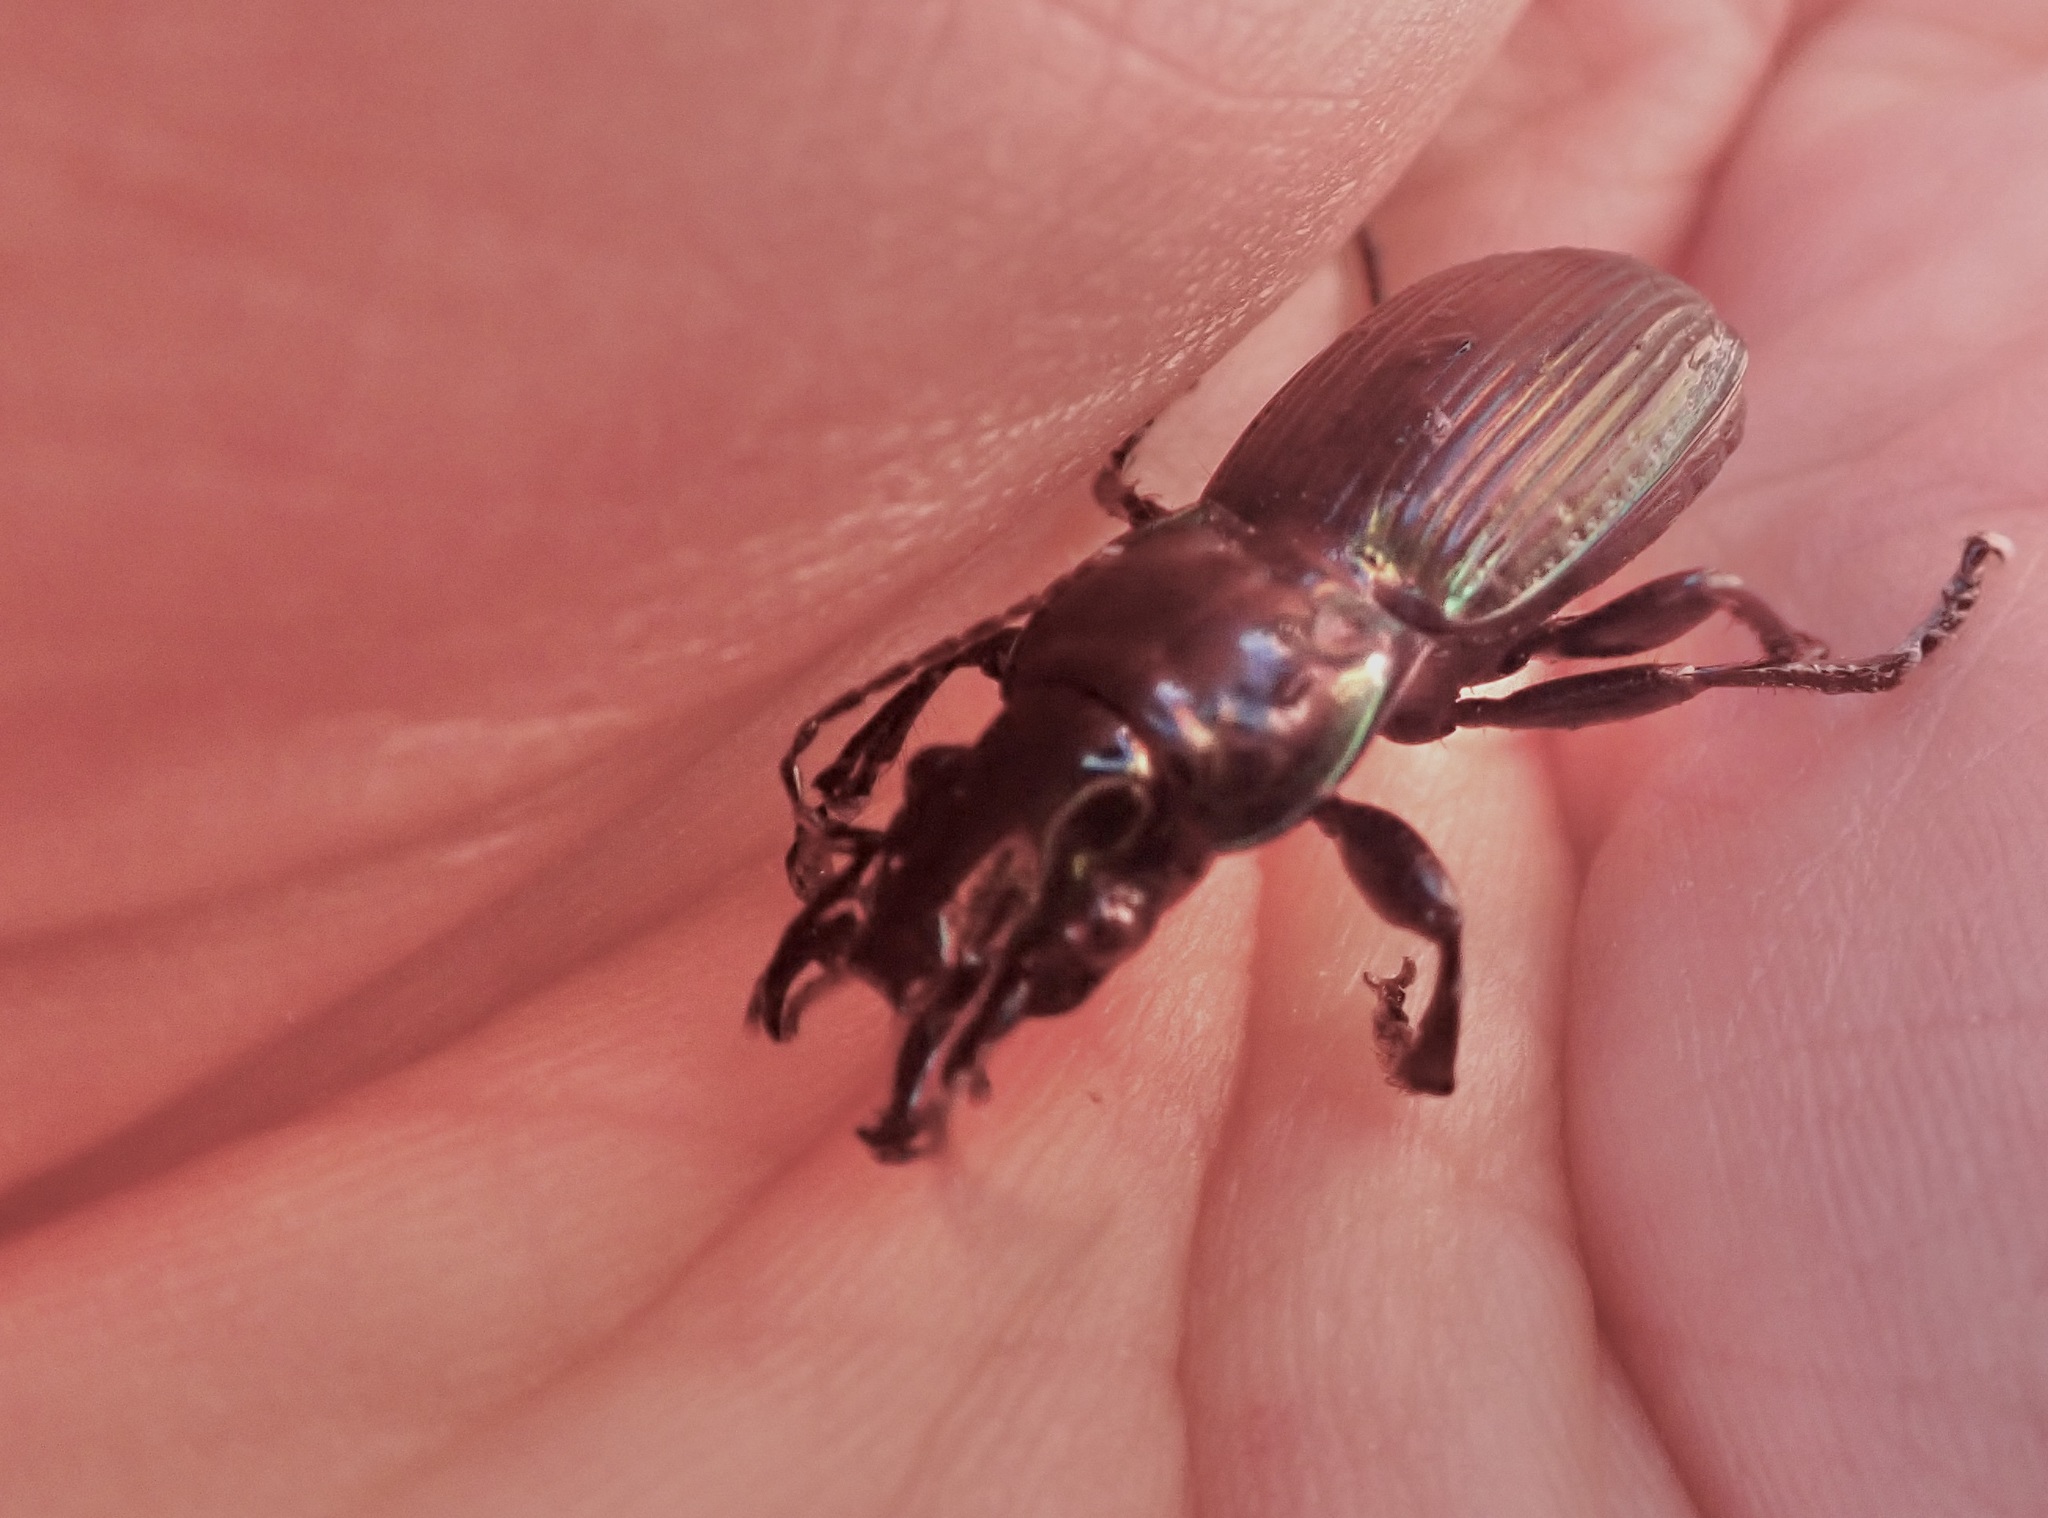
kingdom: Animalia
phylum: Arthropoda
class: Insecta
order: Coleoptera
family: Carabidae
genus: Megadromus
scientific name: Megadromus antarcticus
